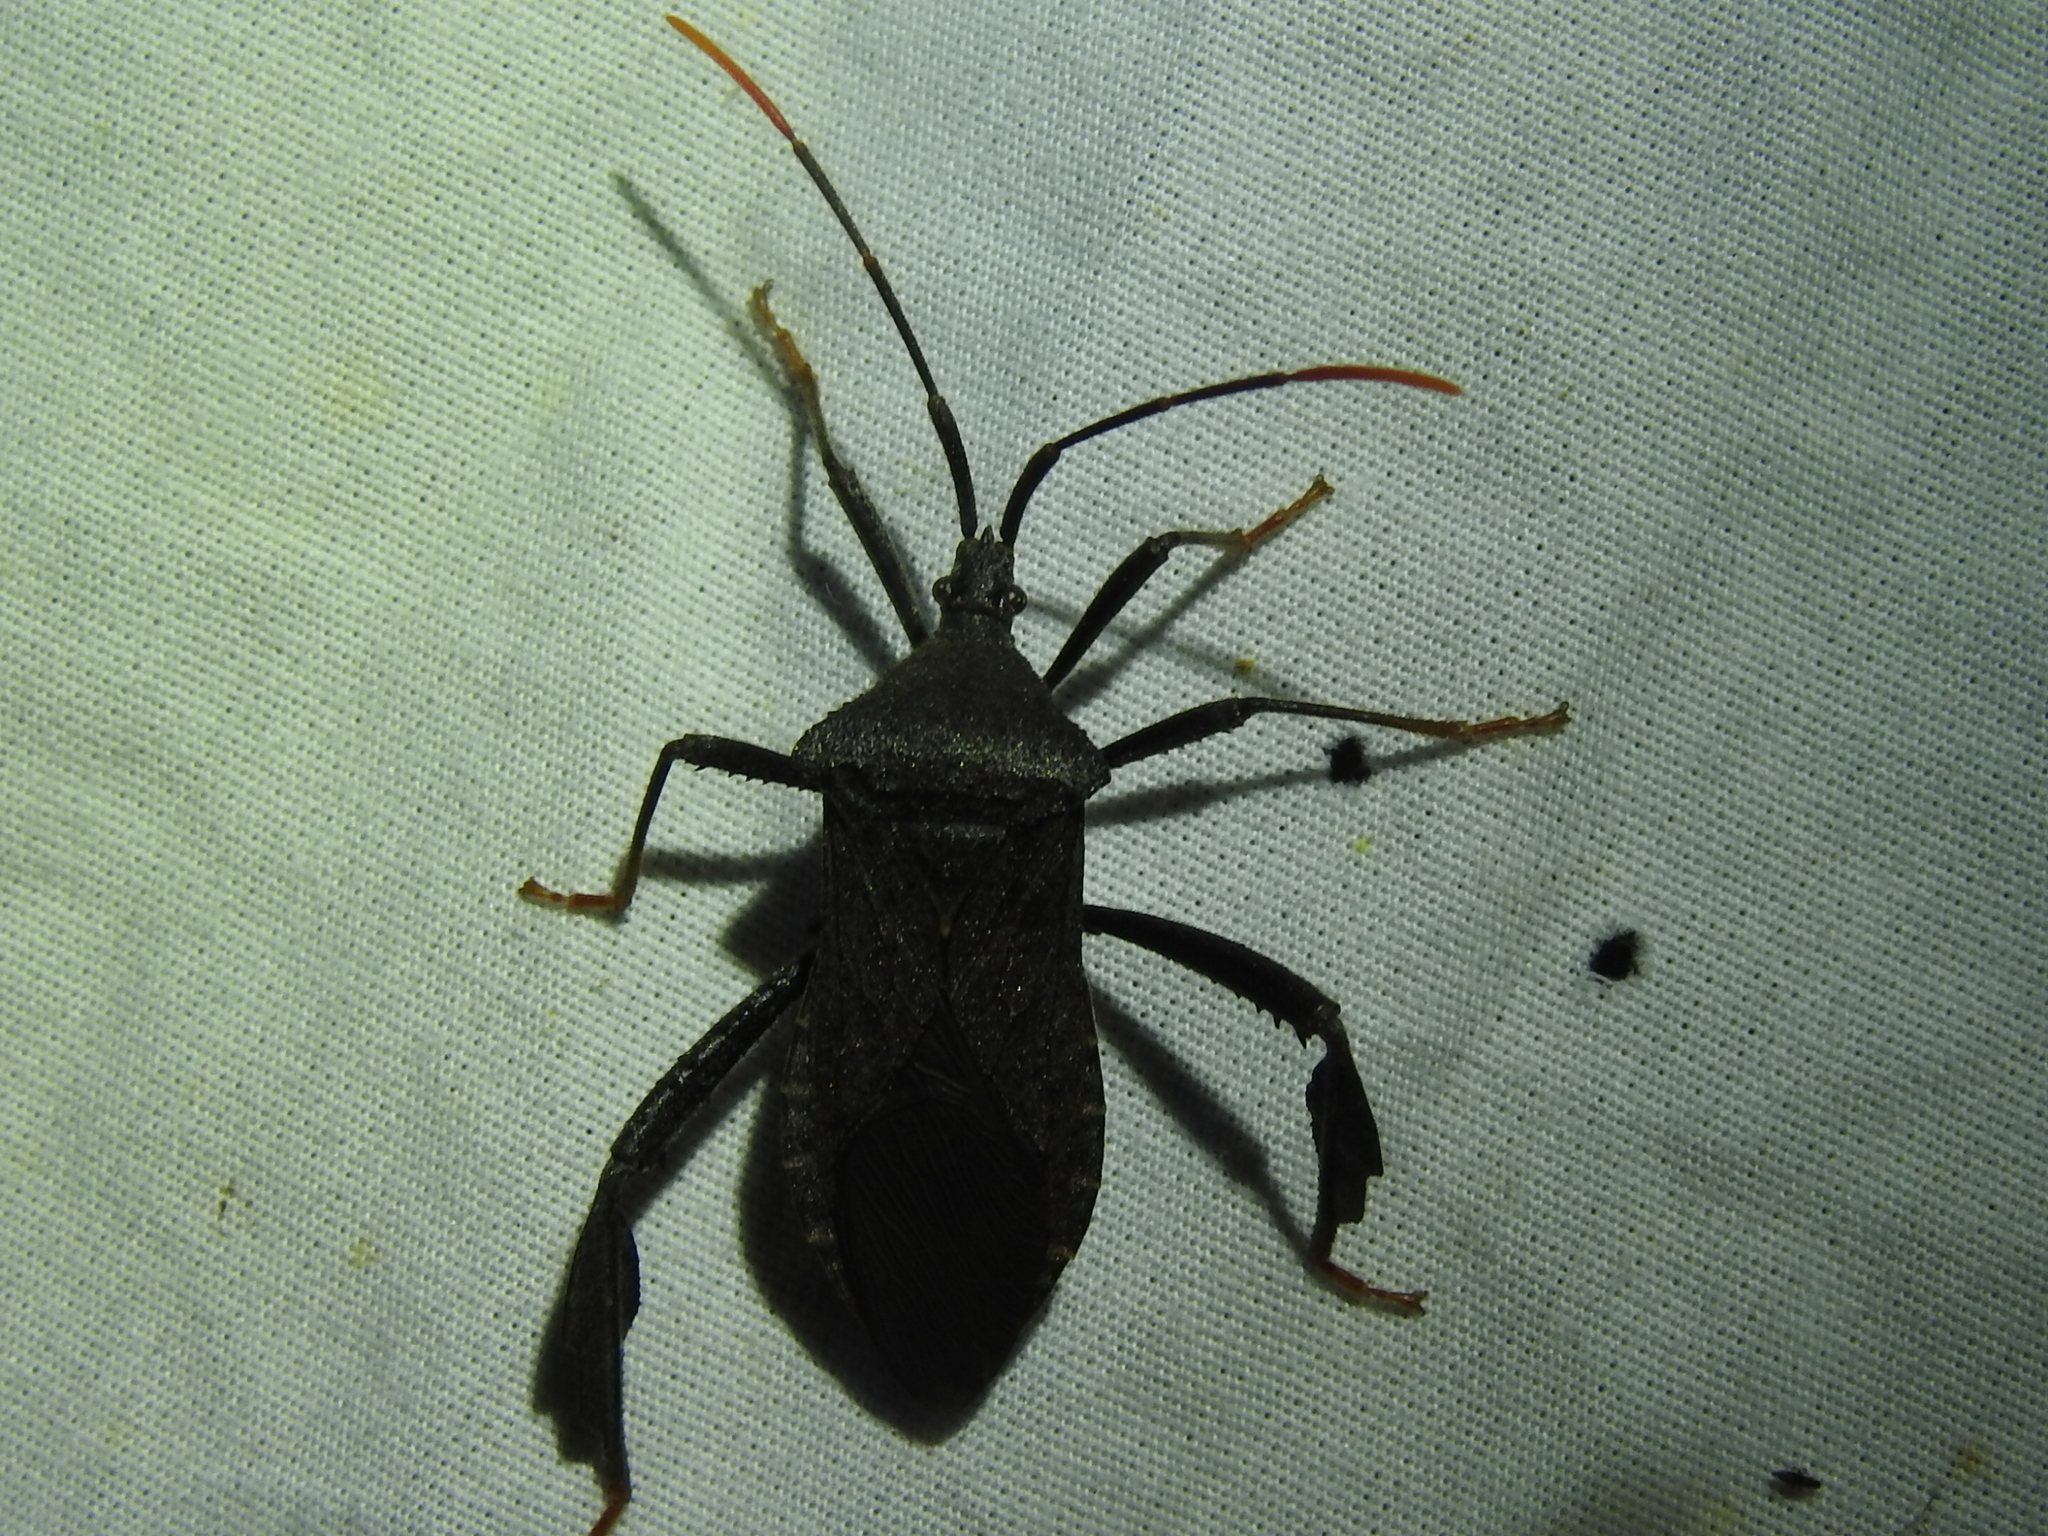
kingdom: Animalia
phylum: Arthropoda
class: Insecta
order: Hemiptera
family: Coreidae
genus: Acanthocephala
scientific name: Acanthocephala terminalis
